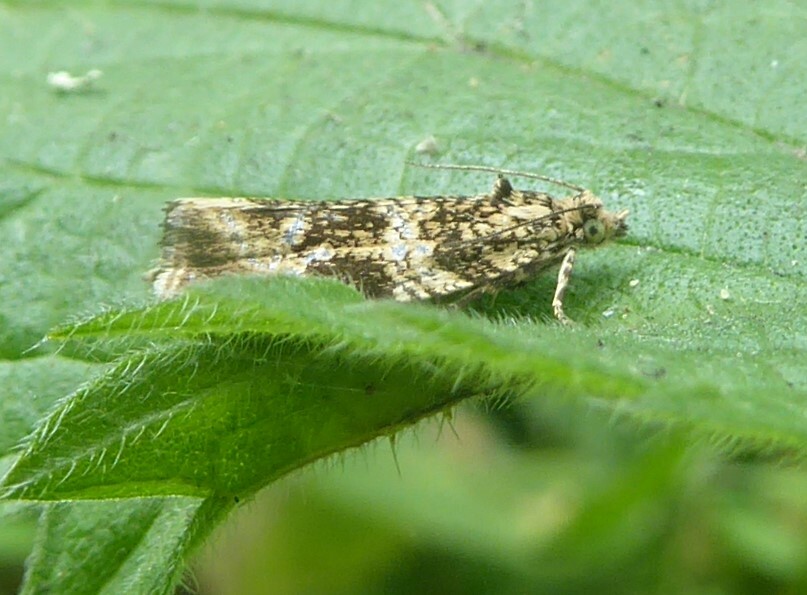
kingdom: Animalia
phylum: Arthropoda
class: Insecta
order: Lepidoptera
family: Tortricidae
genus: Syricoris
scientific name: Syricoris lacunana
